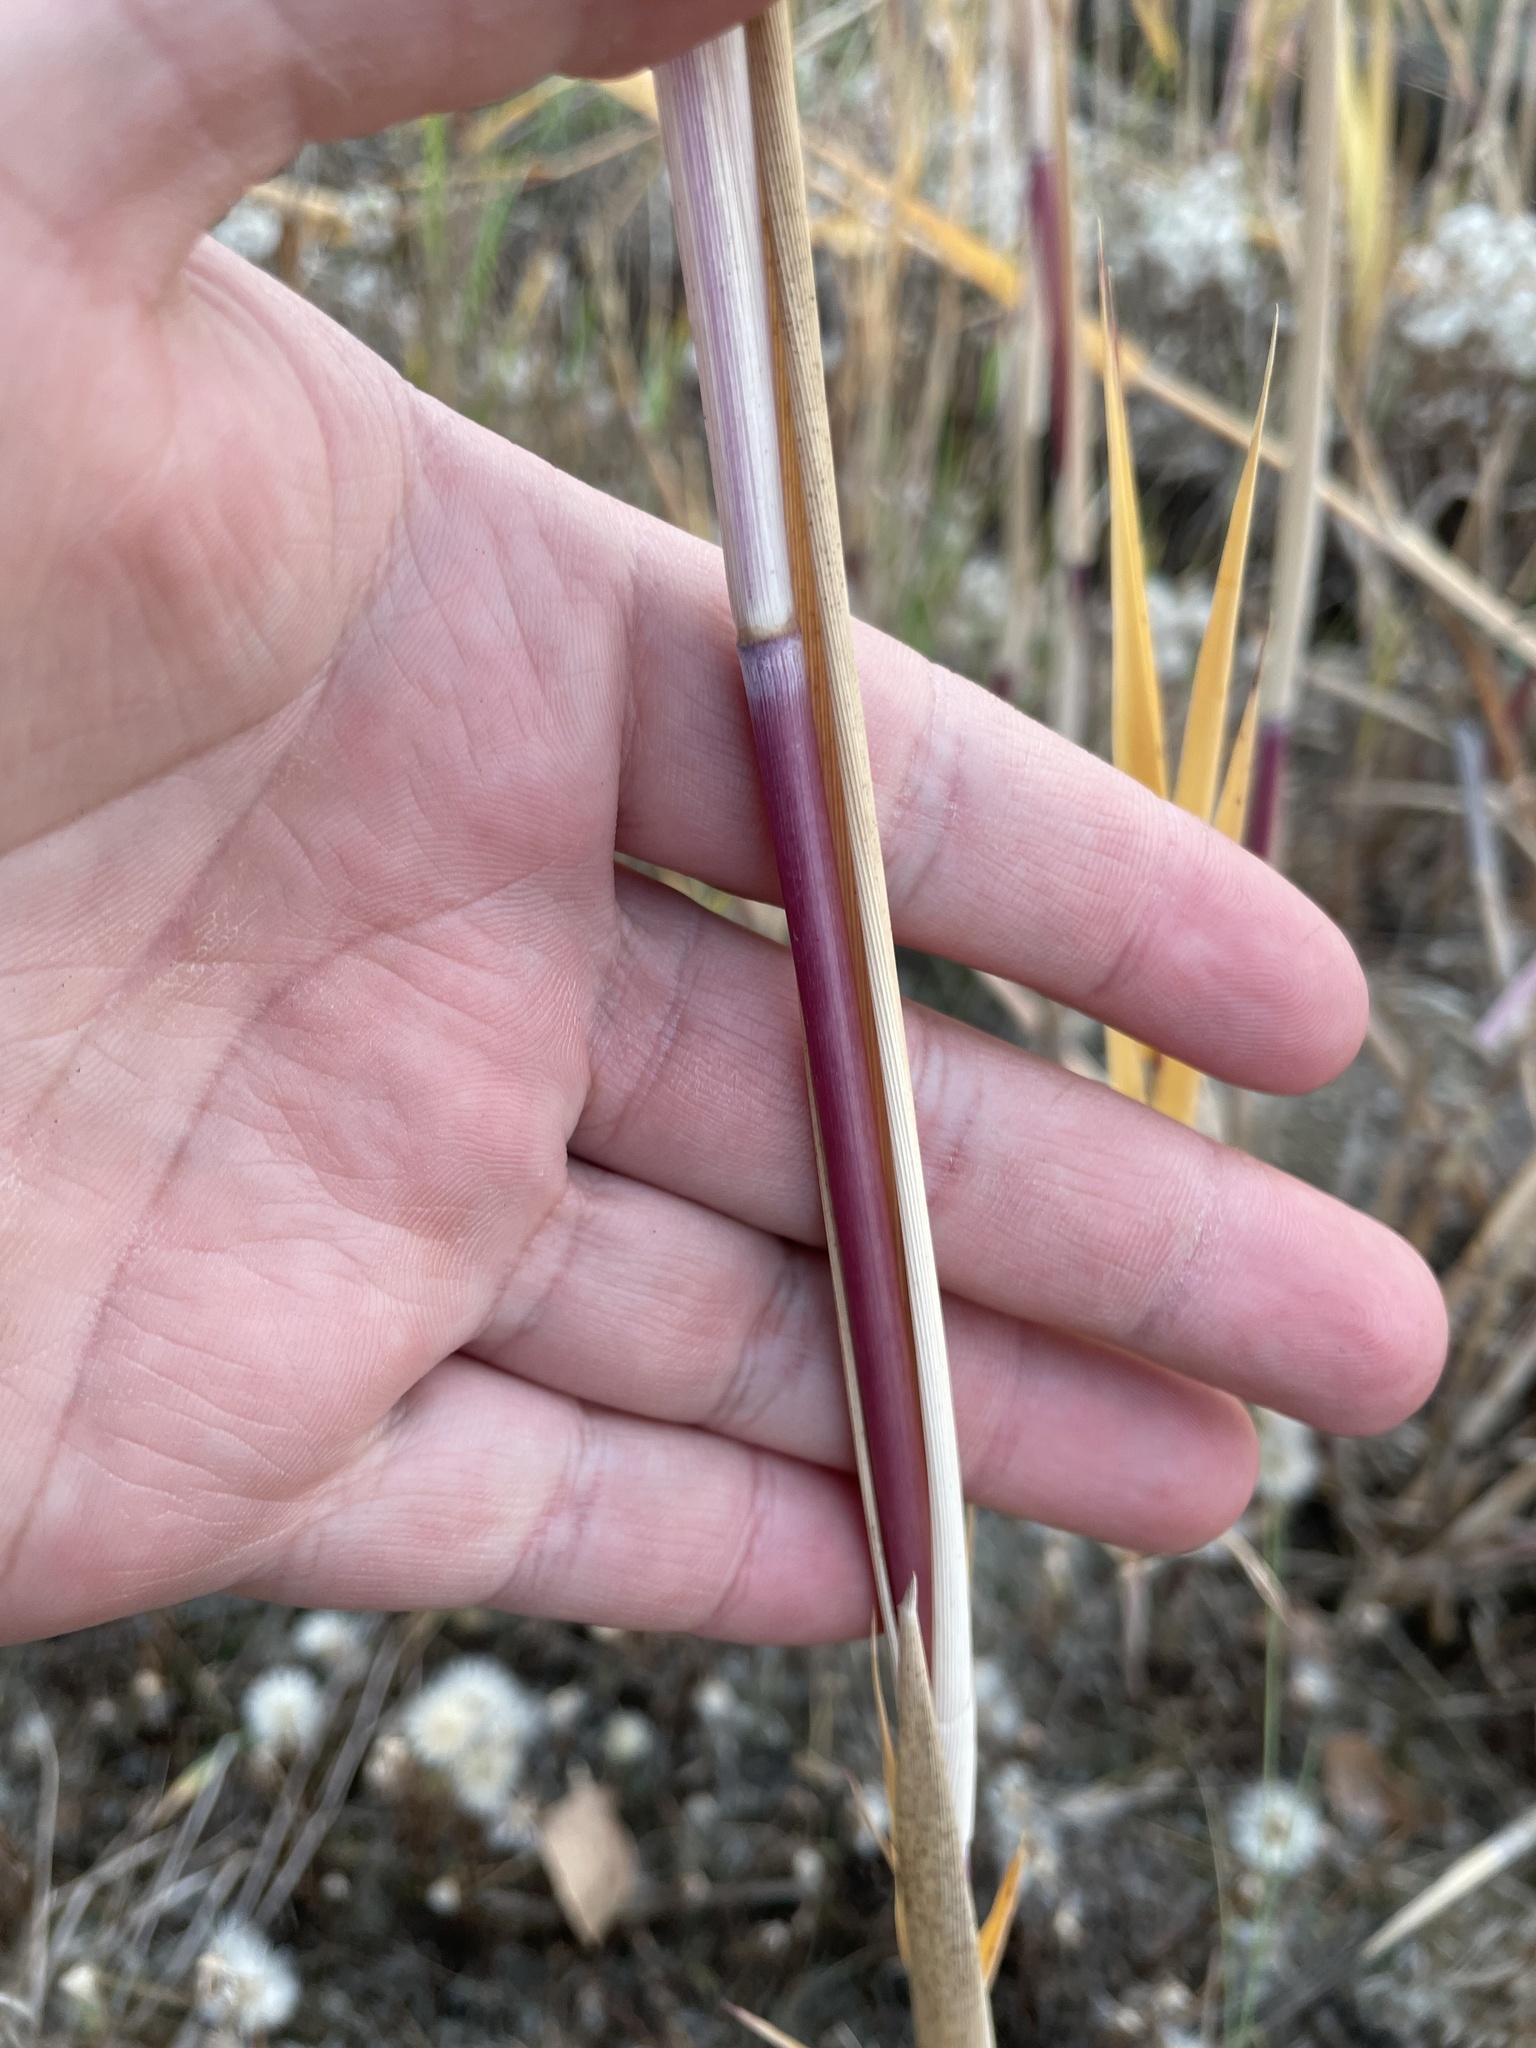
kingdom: Plantae
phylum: Tracheophyta
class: Liliopsida
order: Poales
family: Poaceae
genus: Phragmites
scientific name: Phragmites australis
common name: Common reed
